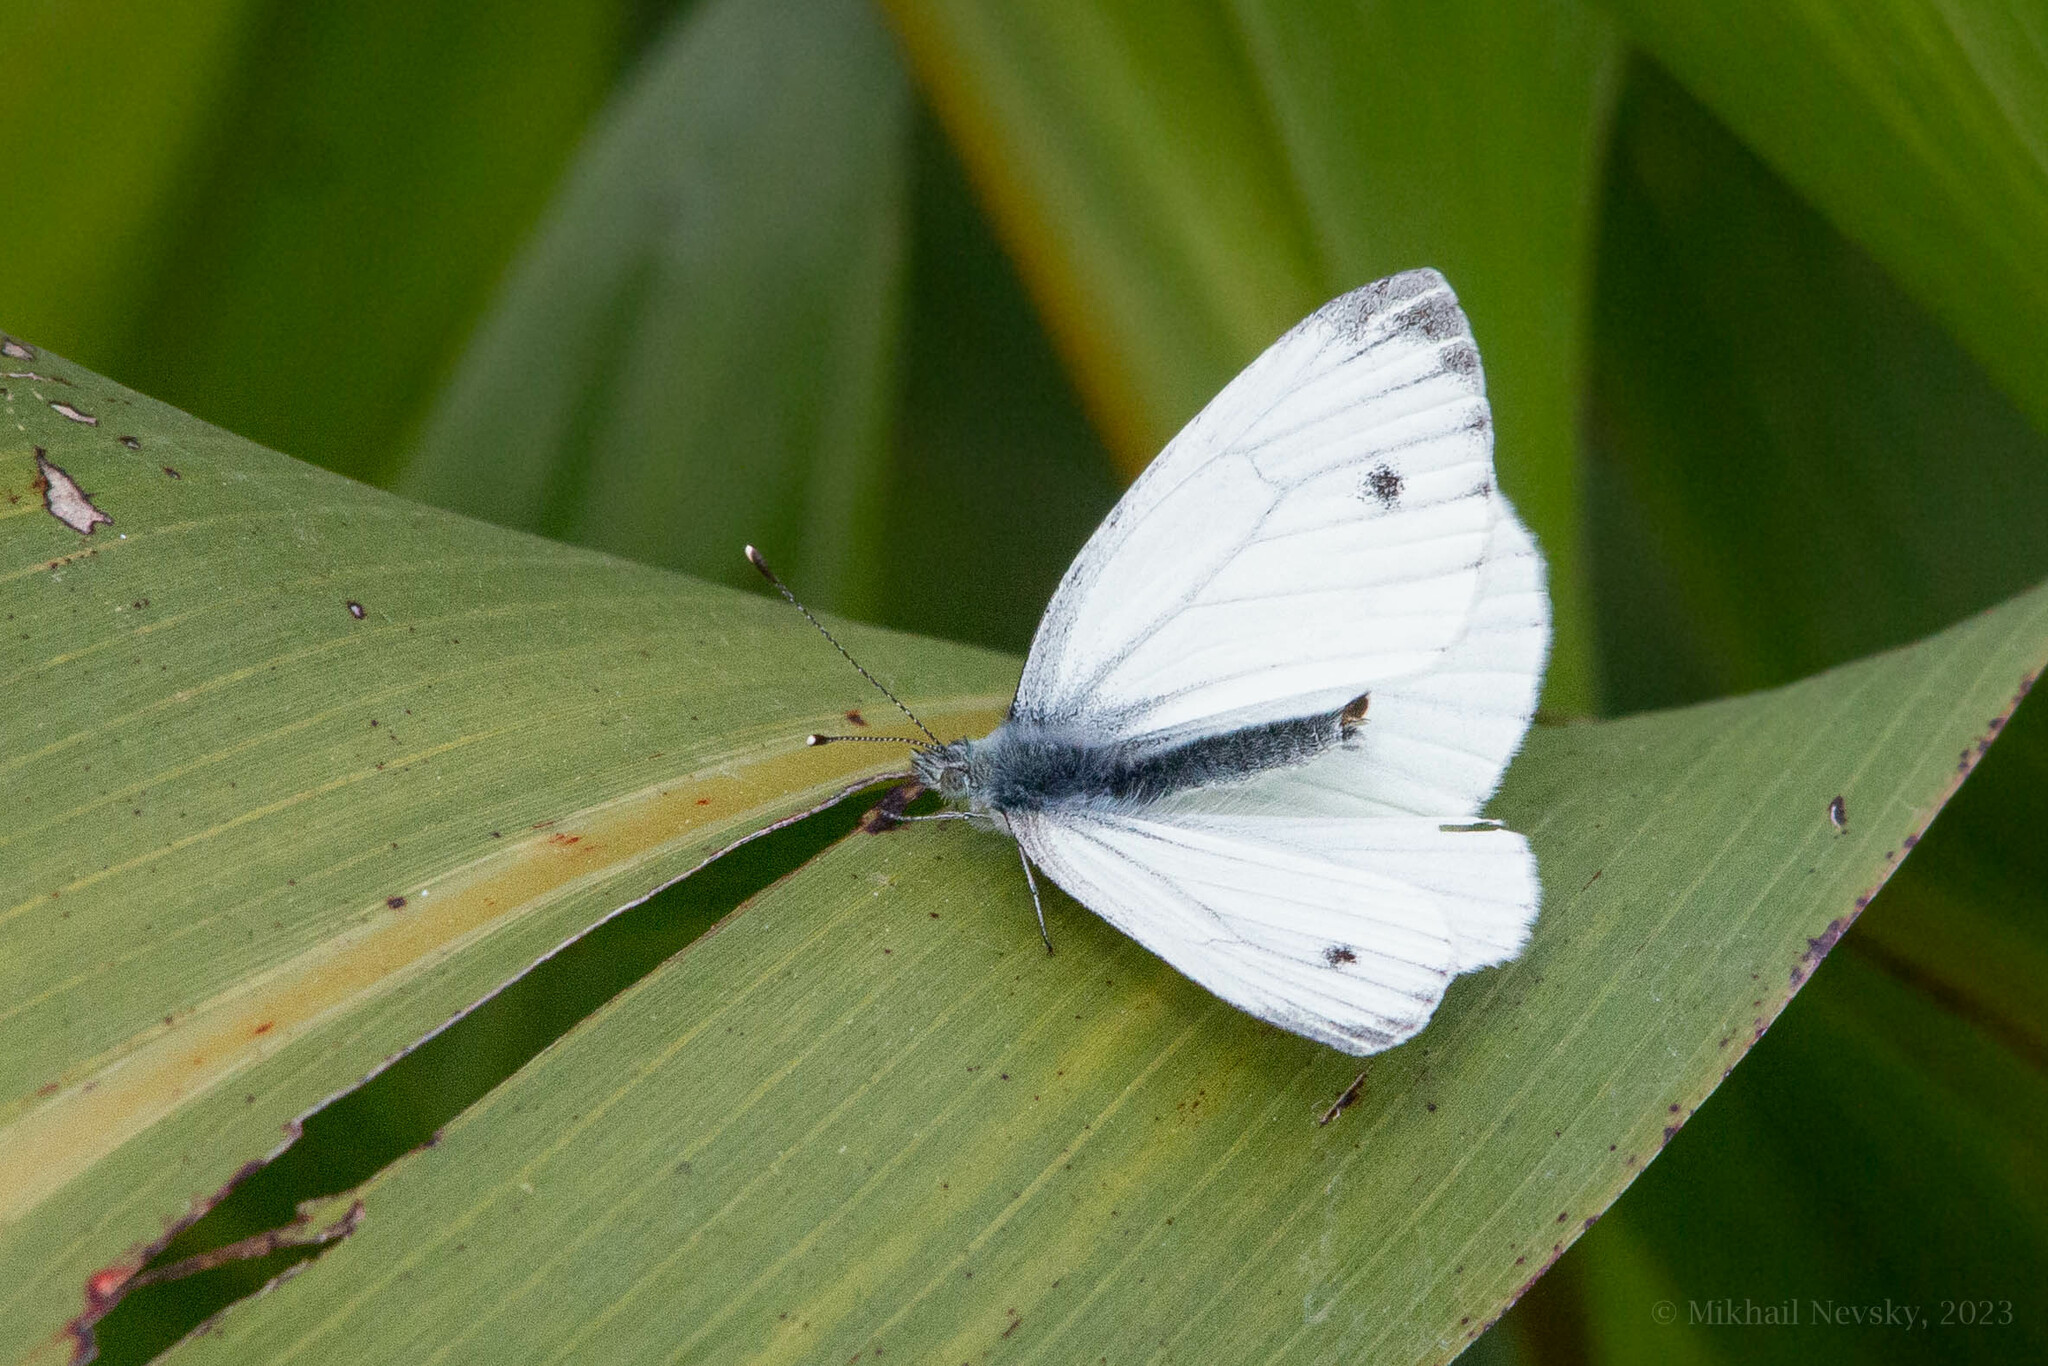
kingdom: Animalia
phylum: Arthropoda
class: Insecta
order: Lepidoptera
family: Pieridae
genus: Pieris
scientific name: Pieris napi
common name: Green-veined white
